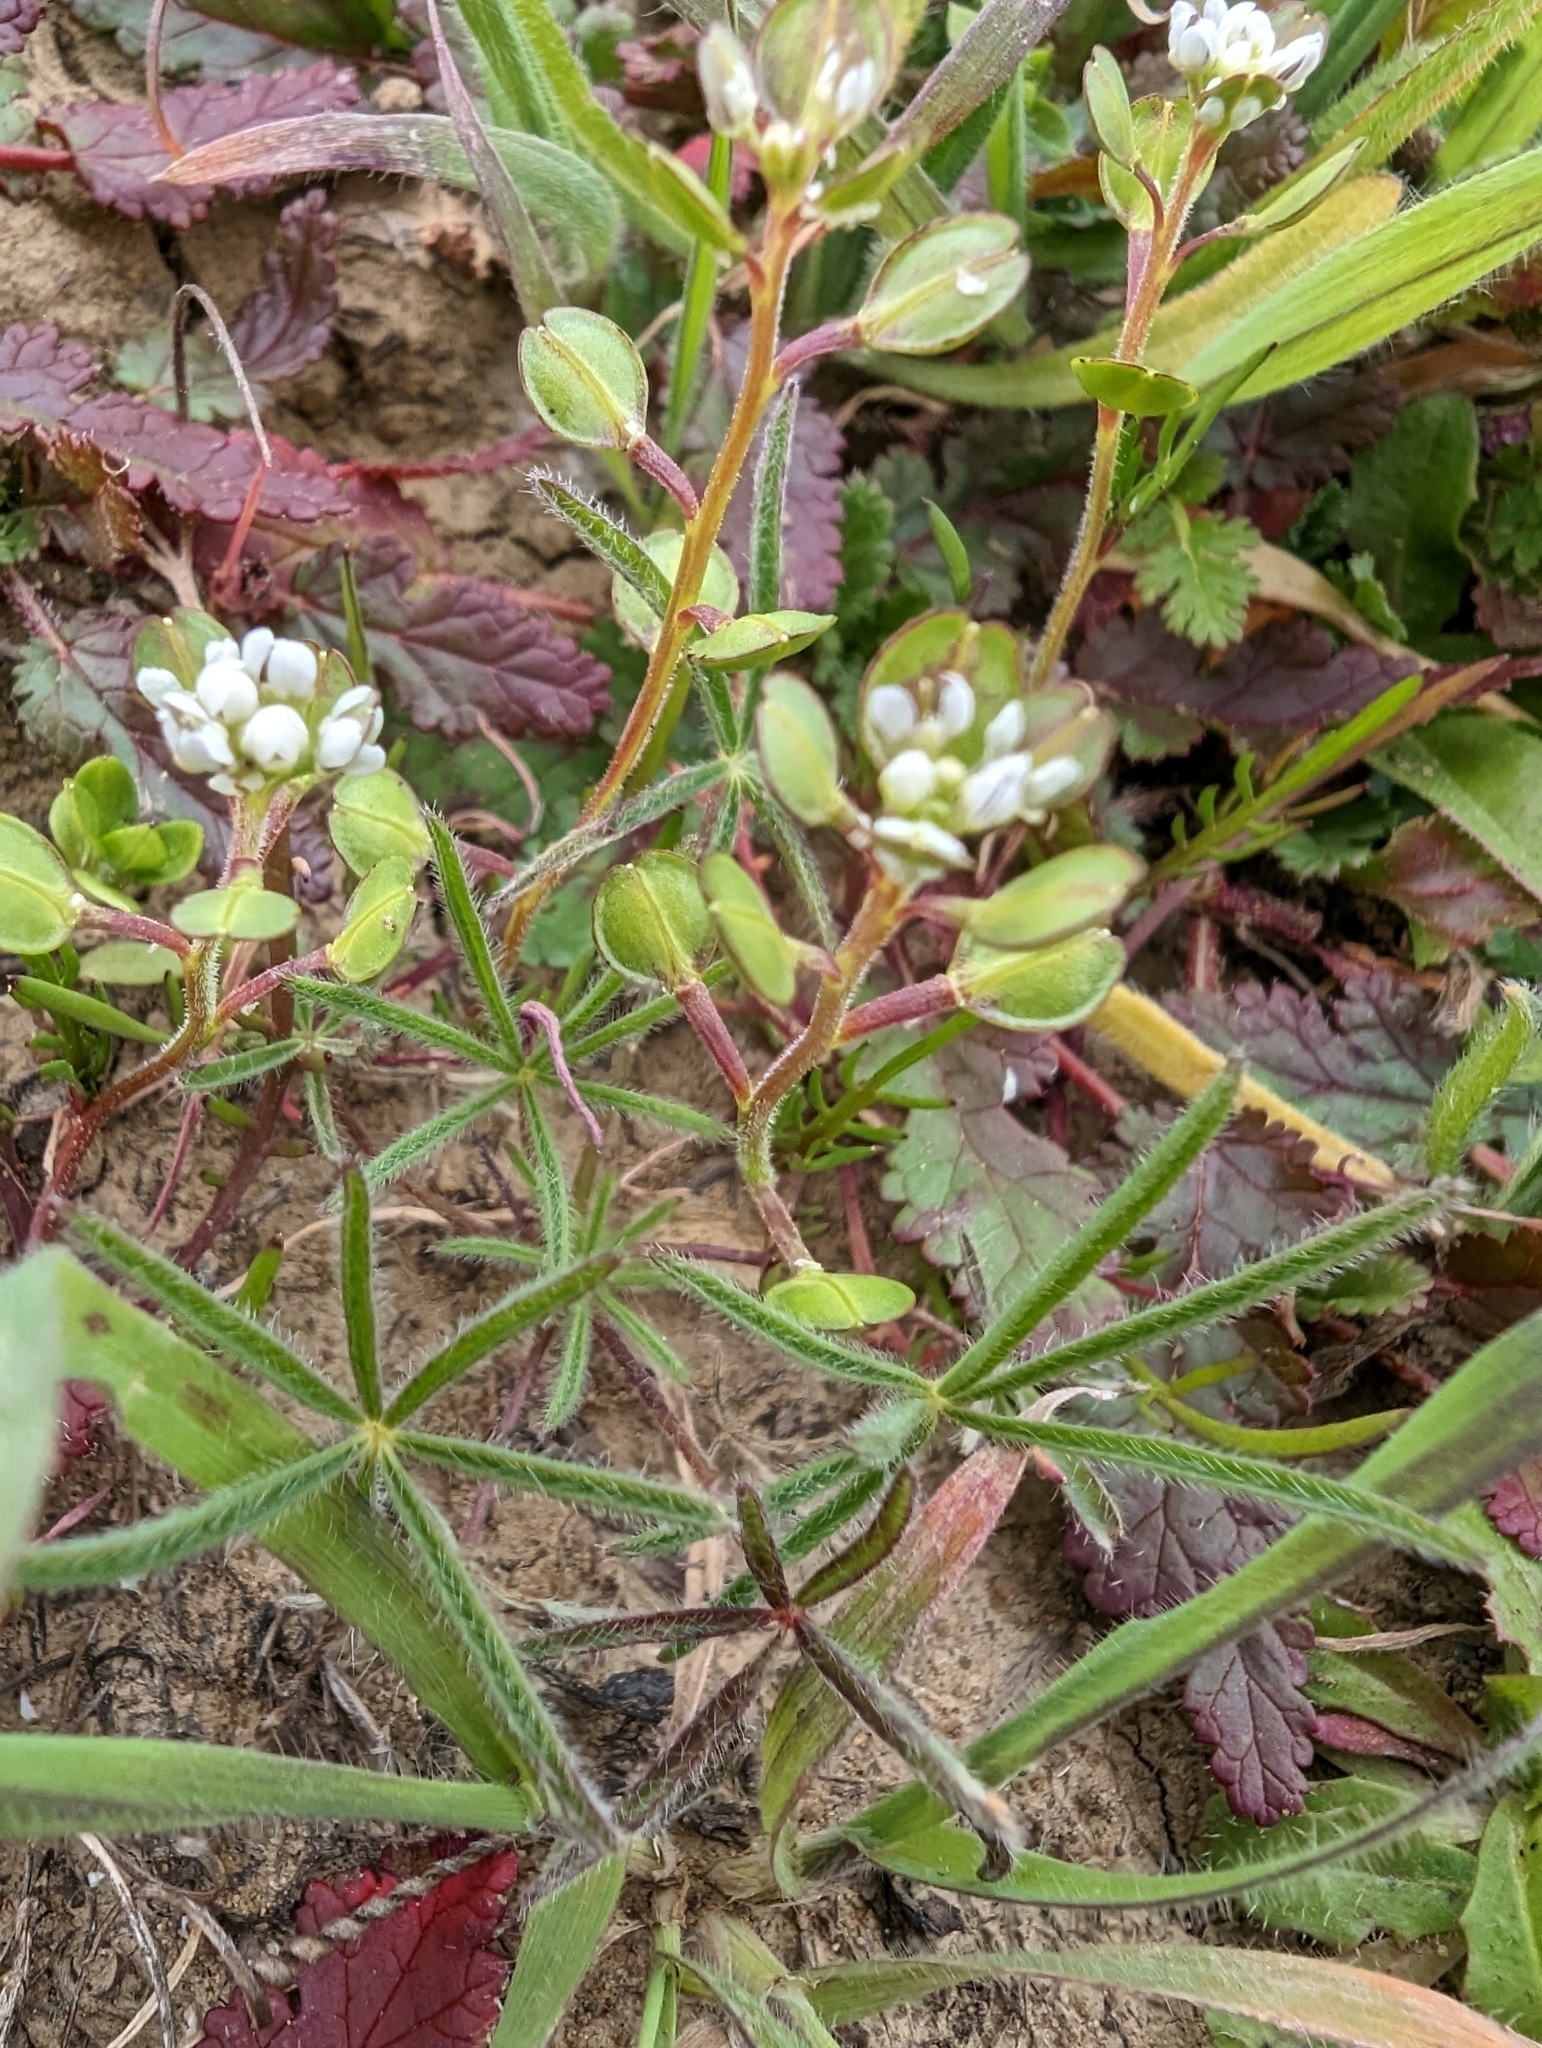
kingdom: Plantae
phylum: Tracheophyta
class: Magnoliopsida
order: Brassicales
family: Brassicaceae
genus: Lepidium
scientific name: Lepidium nitidum
